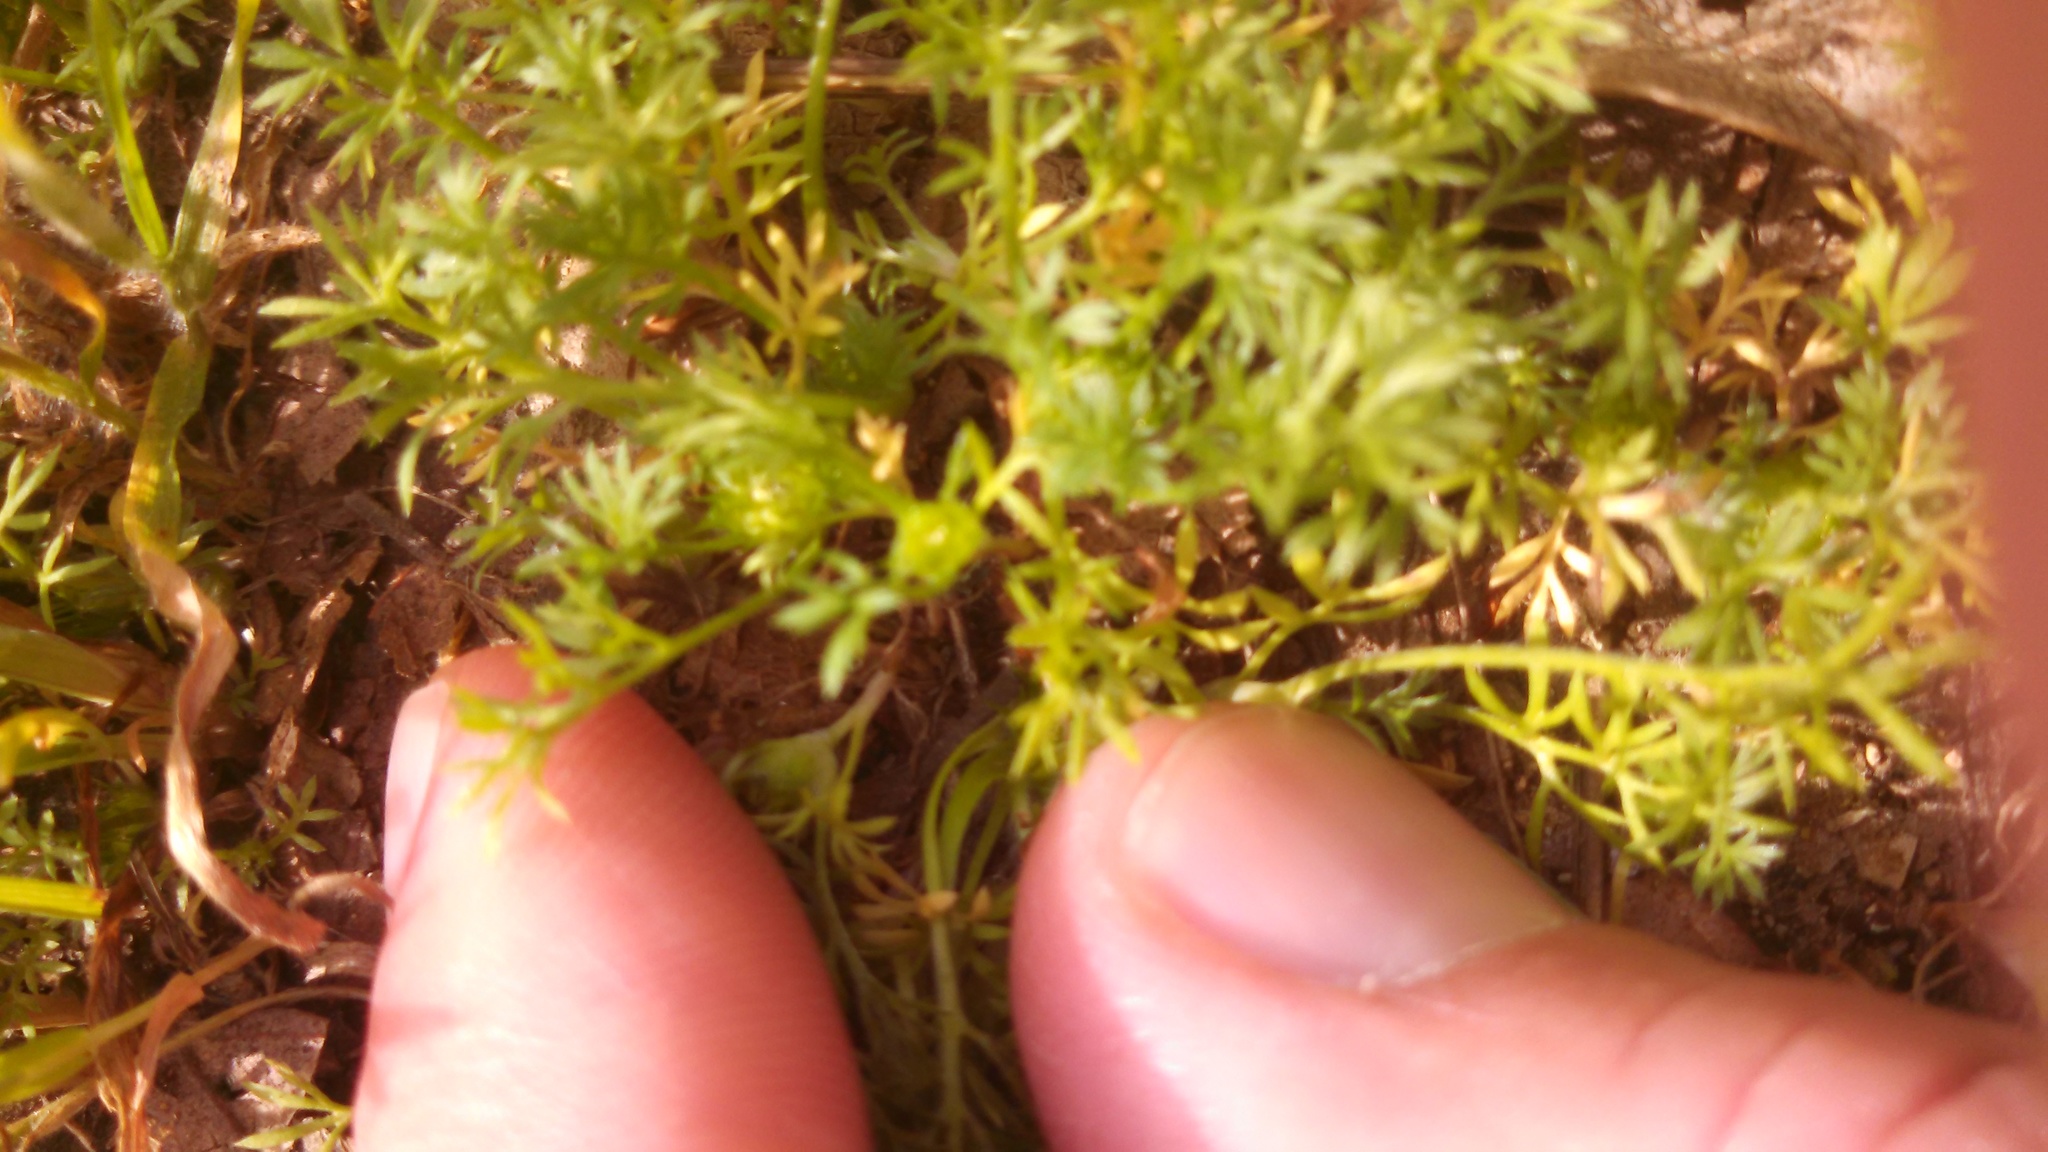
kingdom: Plantae
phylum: Tracheophyta
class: Magnoliopsida
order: Asterales
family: Asteraceae
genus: Soliva
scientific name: Soliva sessilis
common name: Field burrweed
